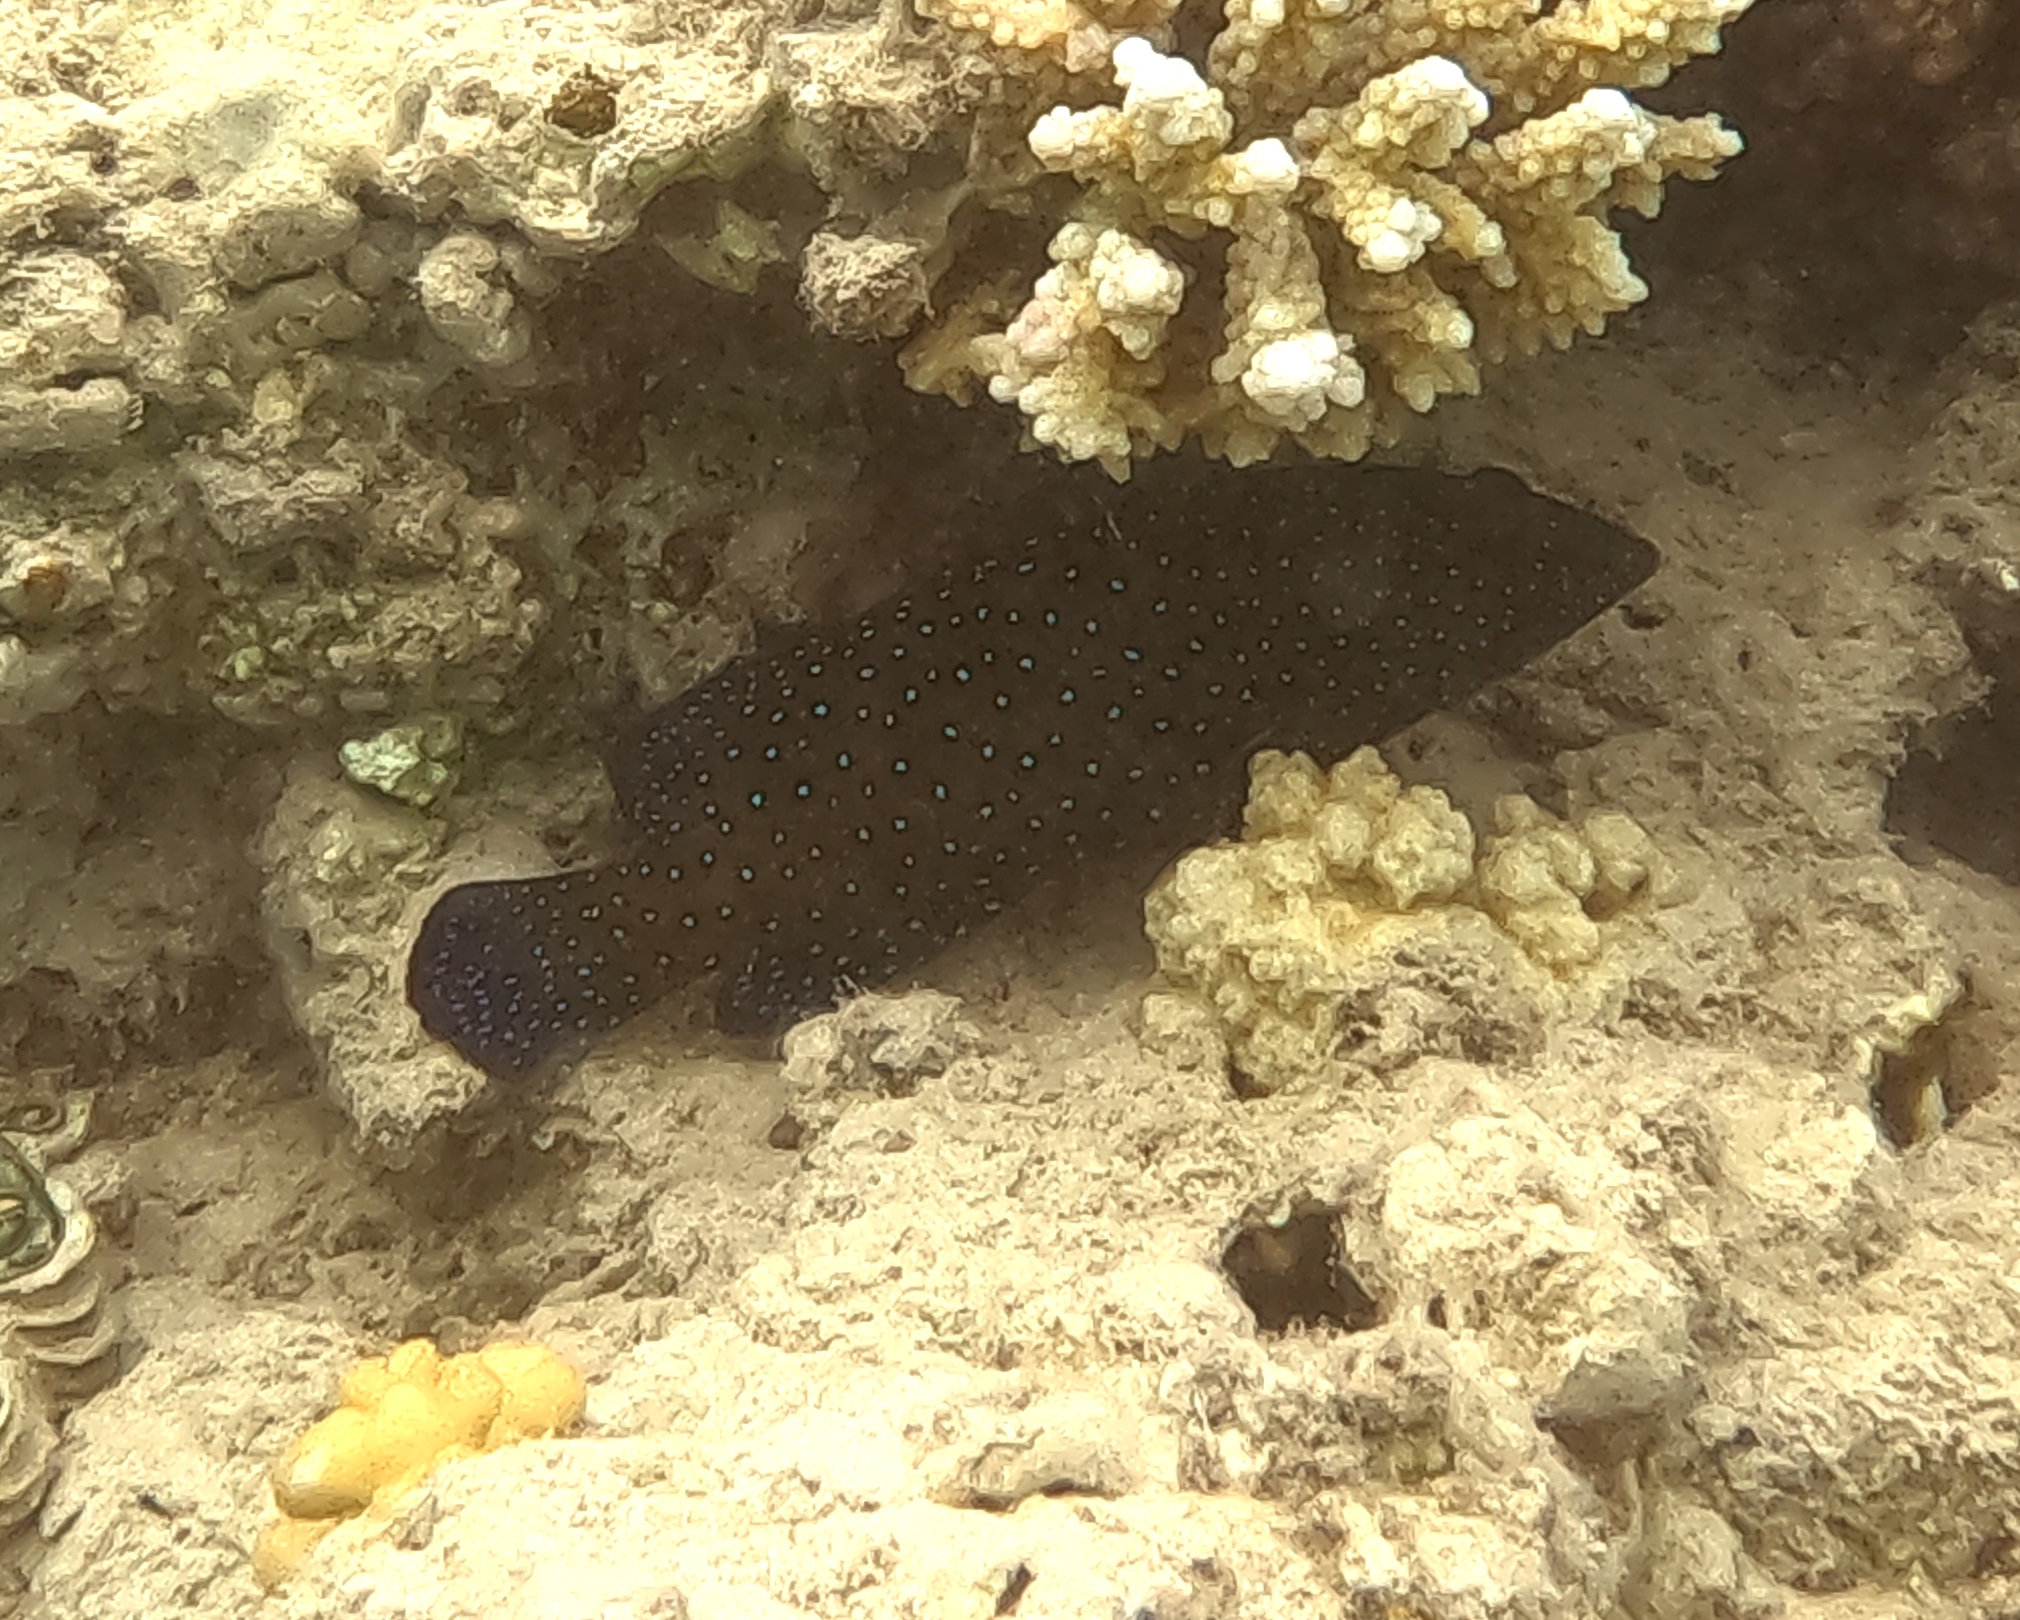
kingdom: Animalia
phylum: Chordata
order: Perciformes
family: Serranidae
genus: Cephalopholis
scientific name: Cephalopholis argus
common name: Peacock grouper
